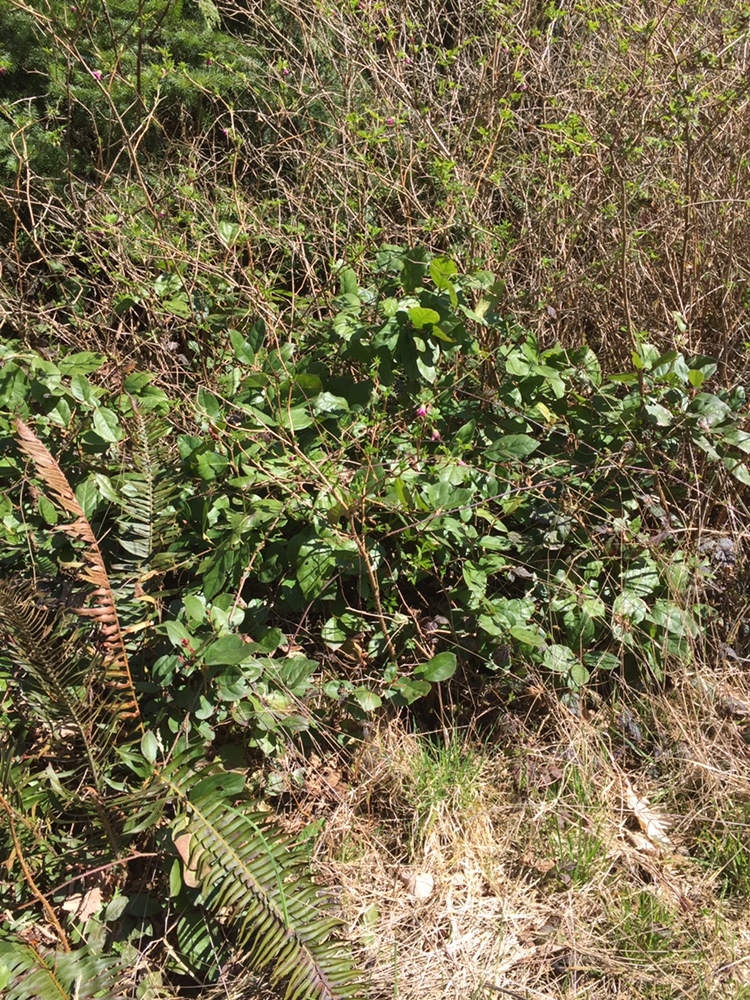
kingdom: Plantae
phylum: Tracheophyta
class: Magnoliopsida
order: Ericales
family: Ericaceae
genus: Gaultheria
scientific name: Gaultheria shallon
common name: Shallon
